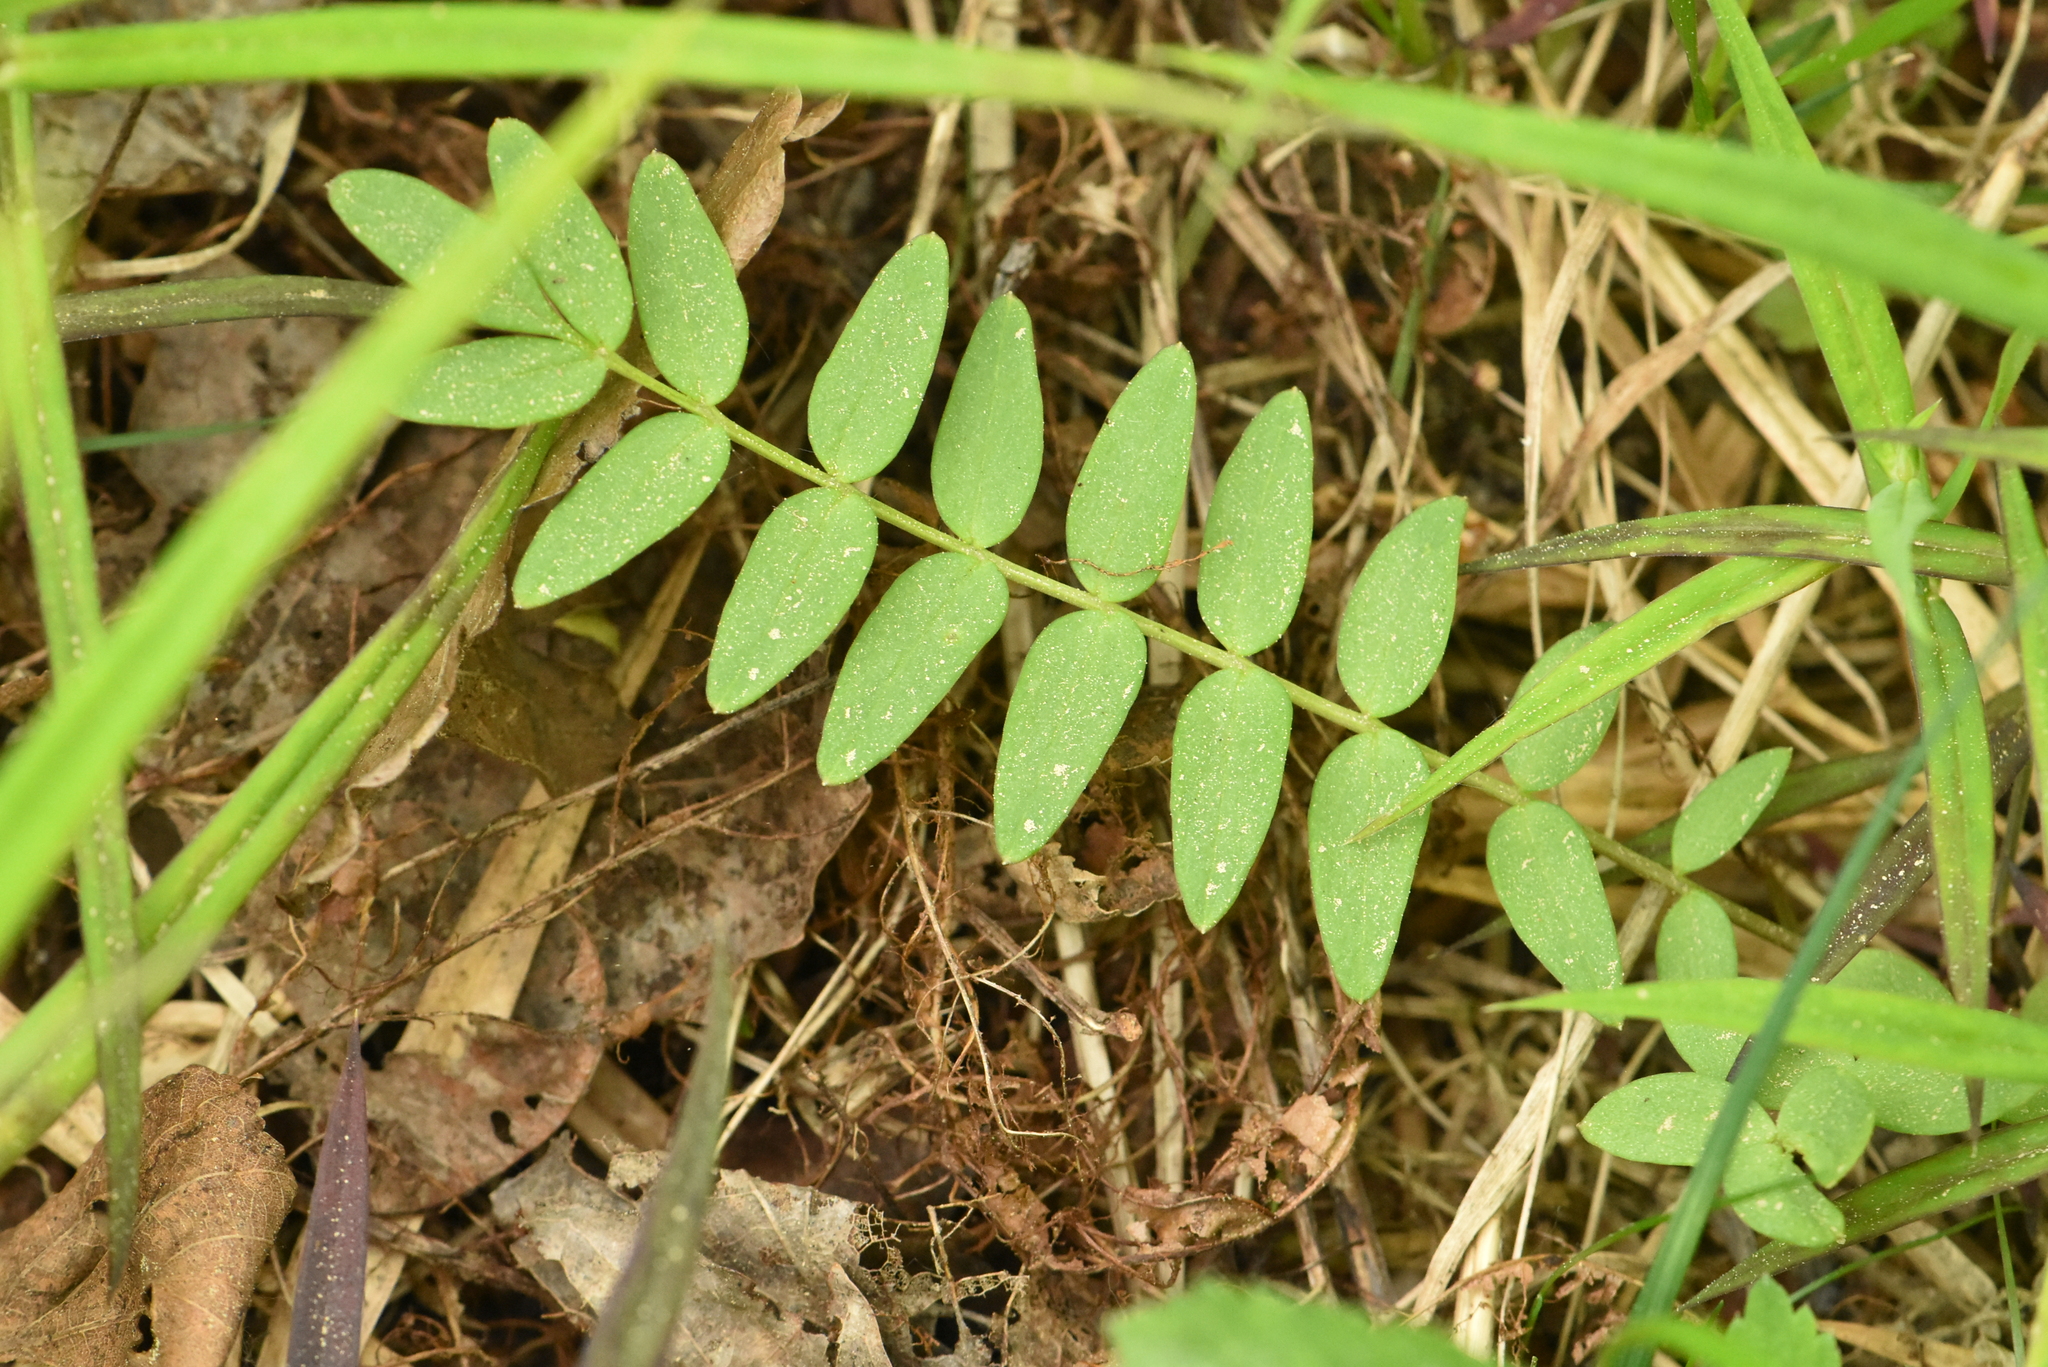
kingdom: Plantae
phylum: Tracheophyta
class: Magnoliopsida
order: Ericales
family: Polemoniaceae
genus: Polemonium
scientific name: Polemonium caeruleum
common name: Jacob's-ladder
